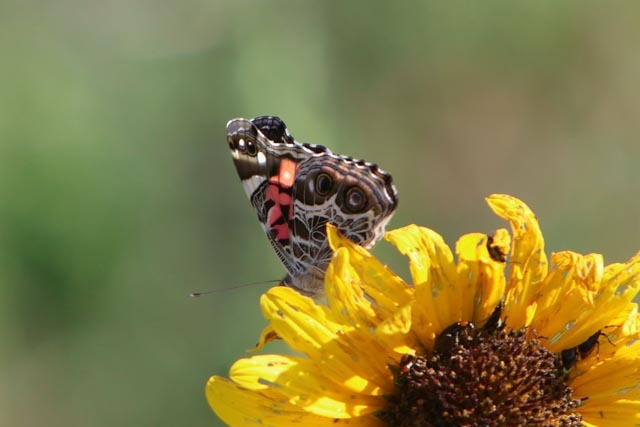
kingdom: Animalia
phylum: Arthropoda
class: Insecta
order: Lepidoptera
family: Nymphalidae
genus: Vanessa
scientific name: Vanessa virginiensis
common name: American lady
